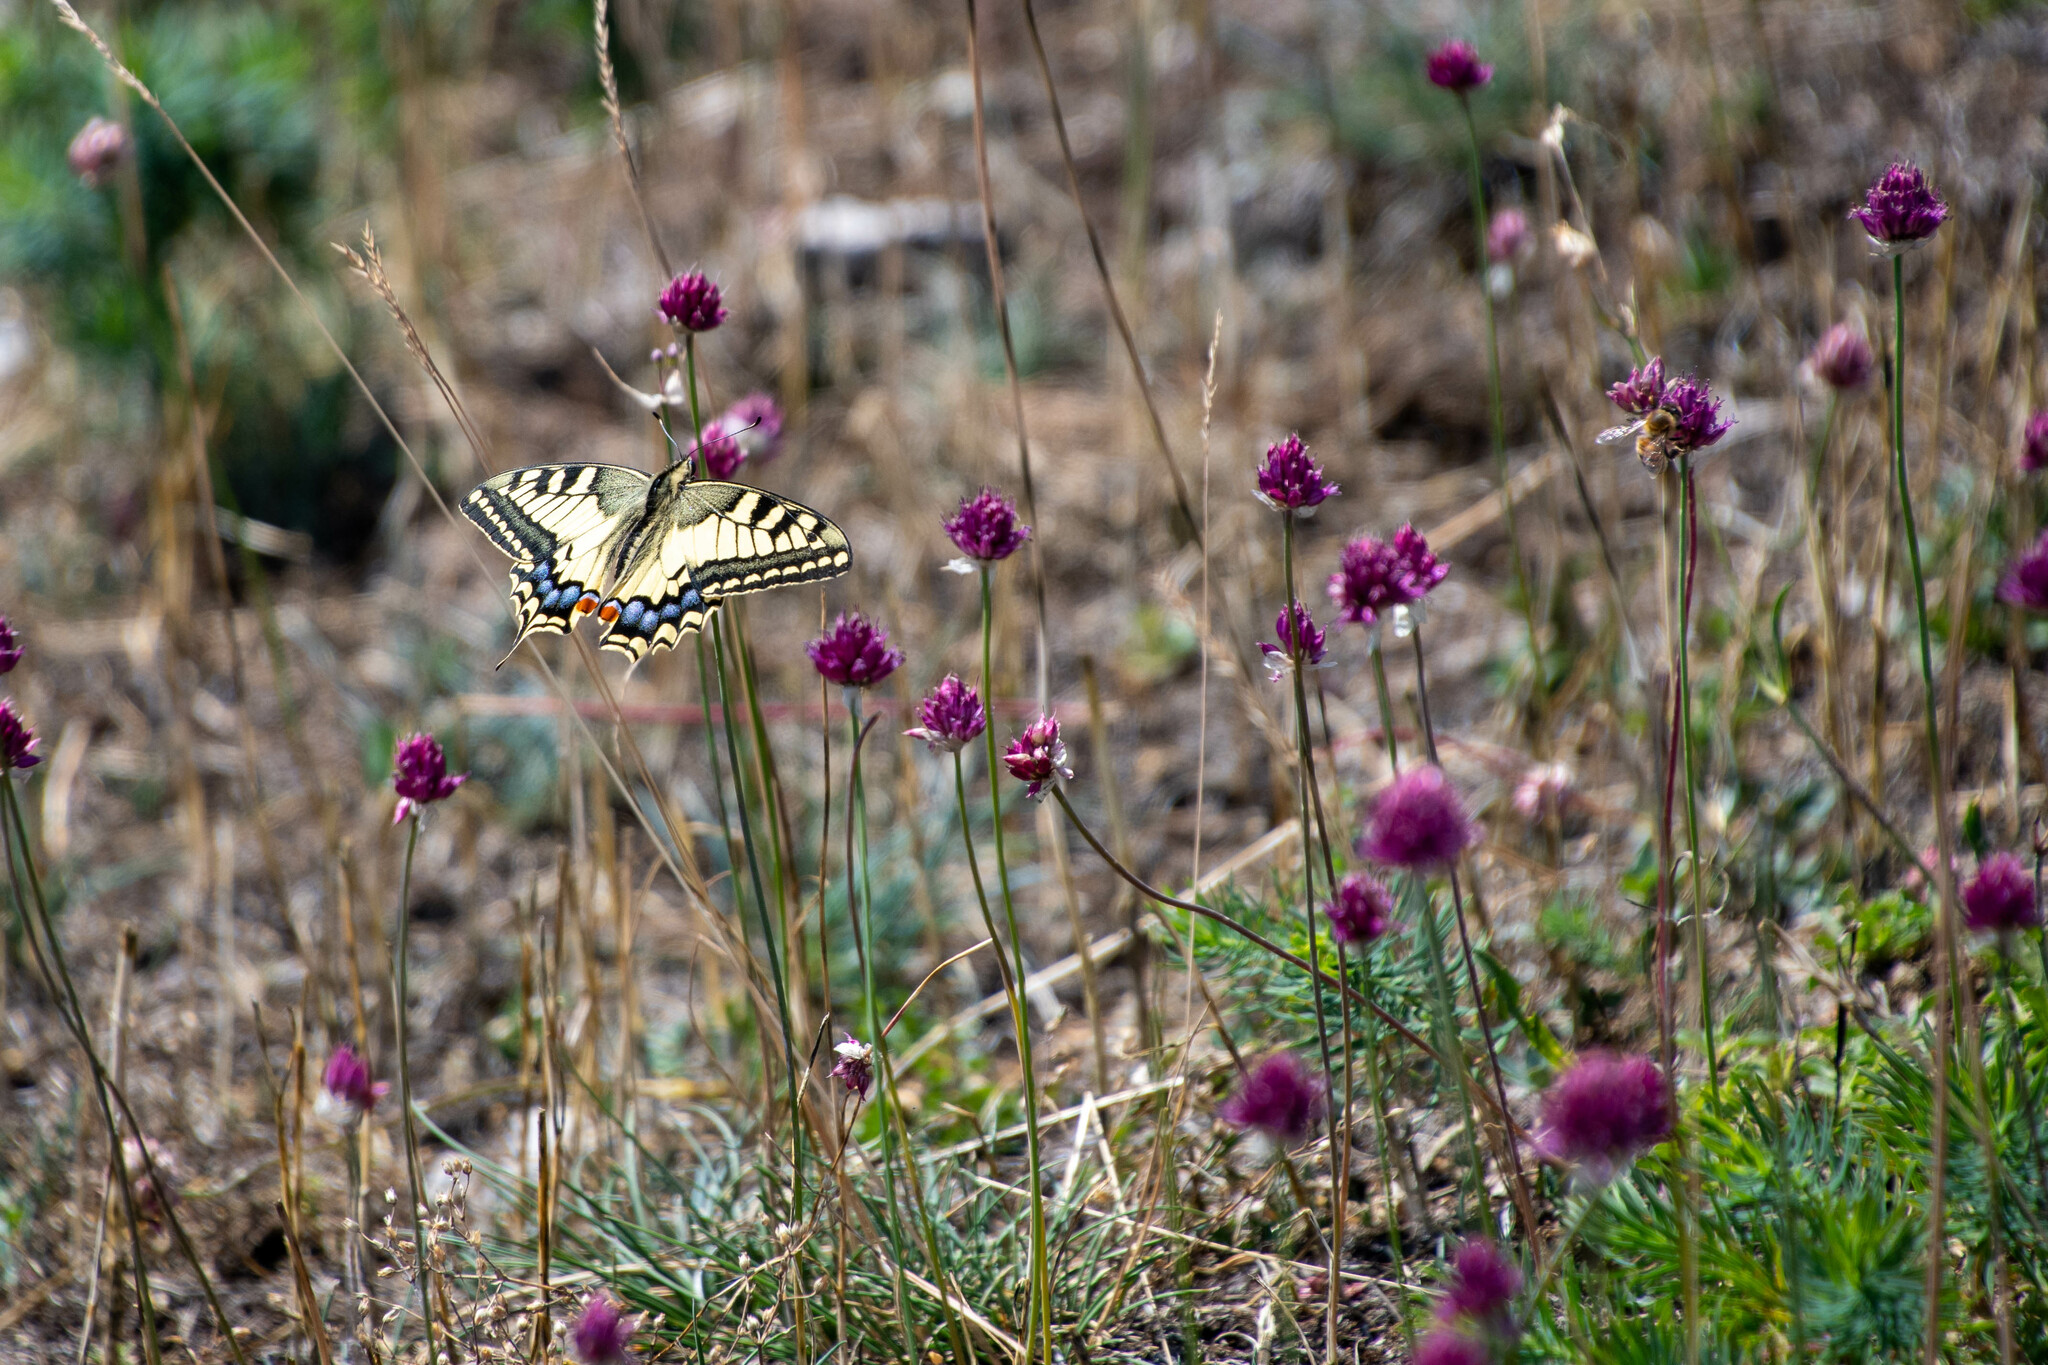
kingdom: Animalia
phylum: Arthropoda
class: Insecta
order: Lepidoptera
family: Papilionidae
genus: Papilio
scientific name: Papilio machaon
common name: Swallowtail
